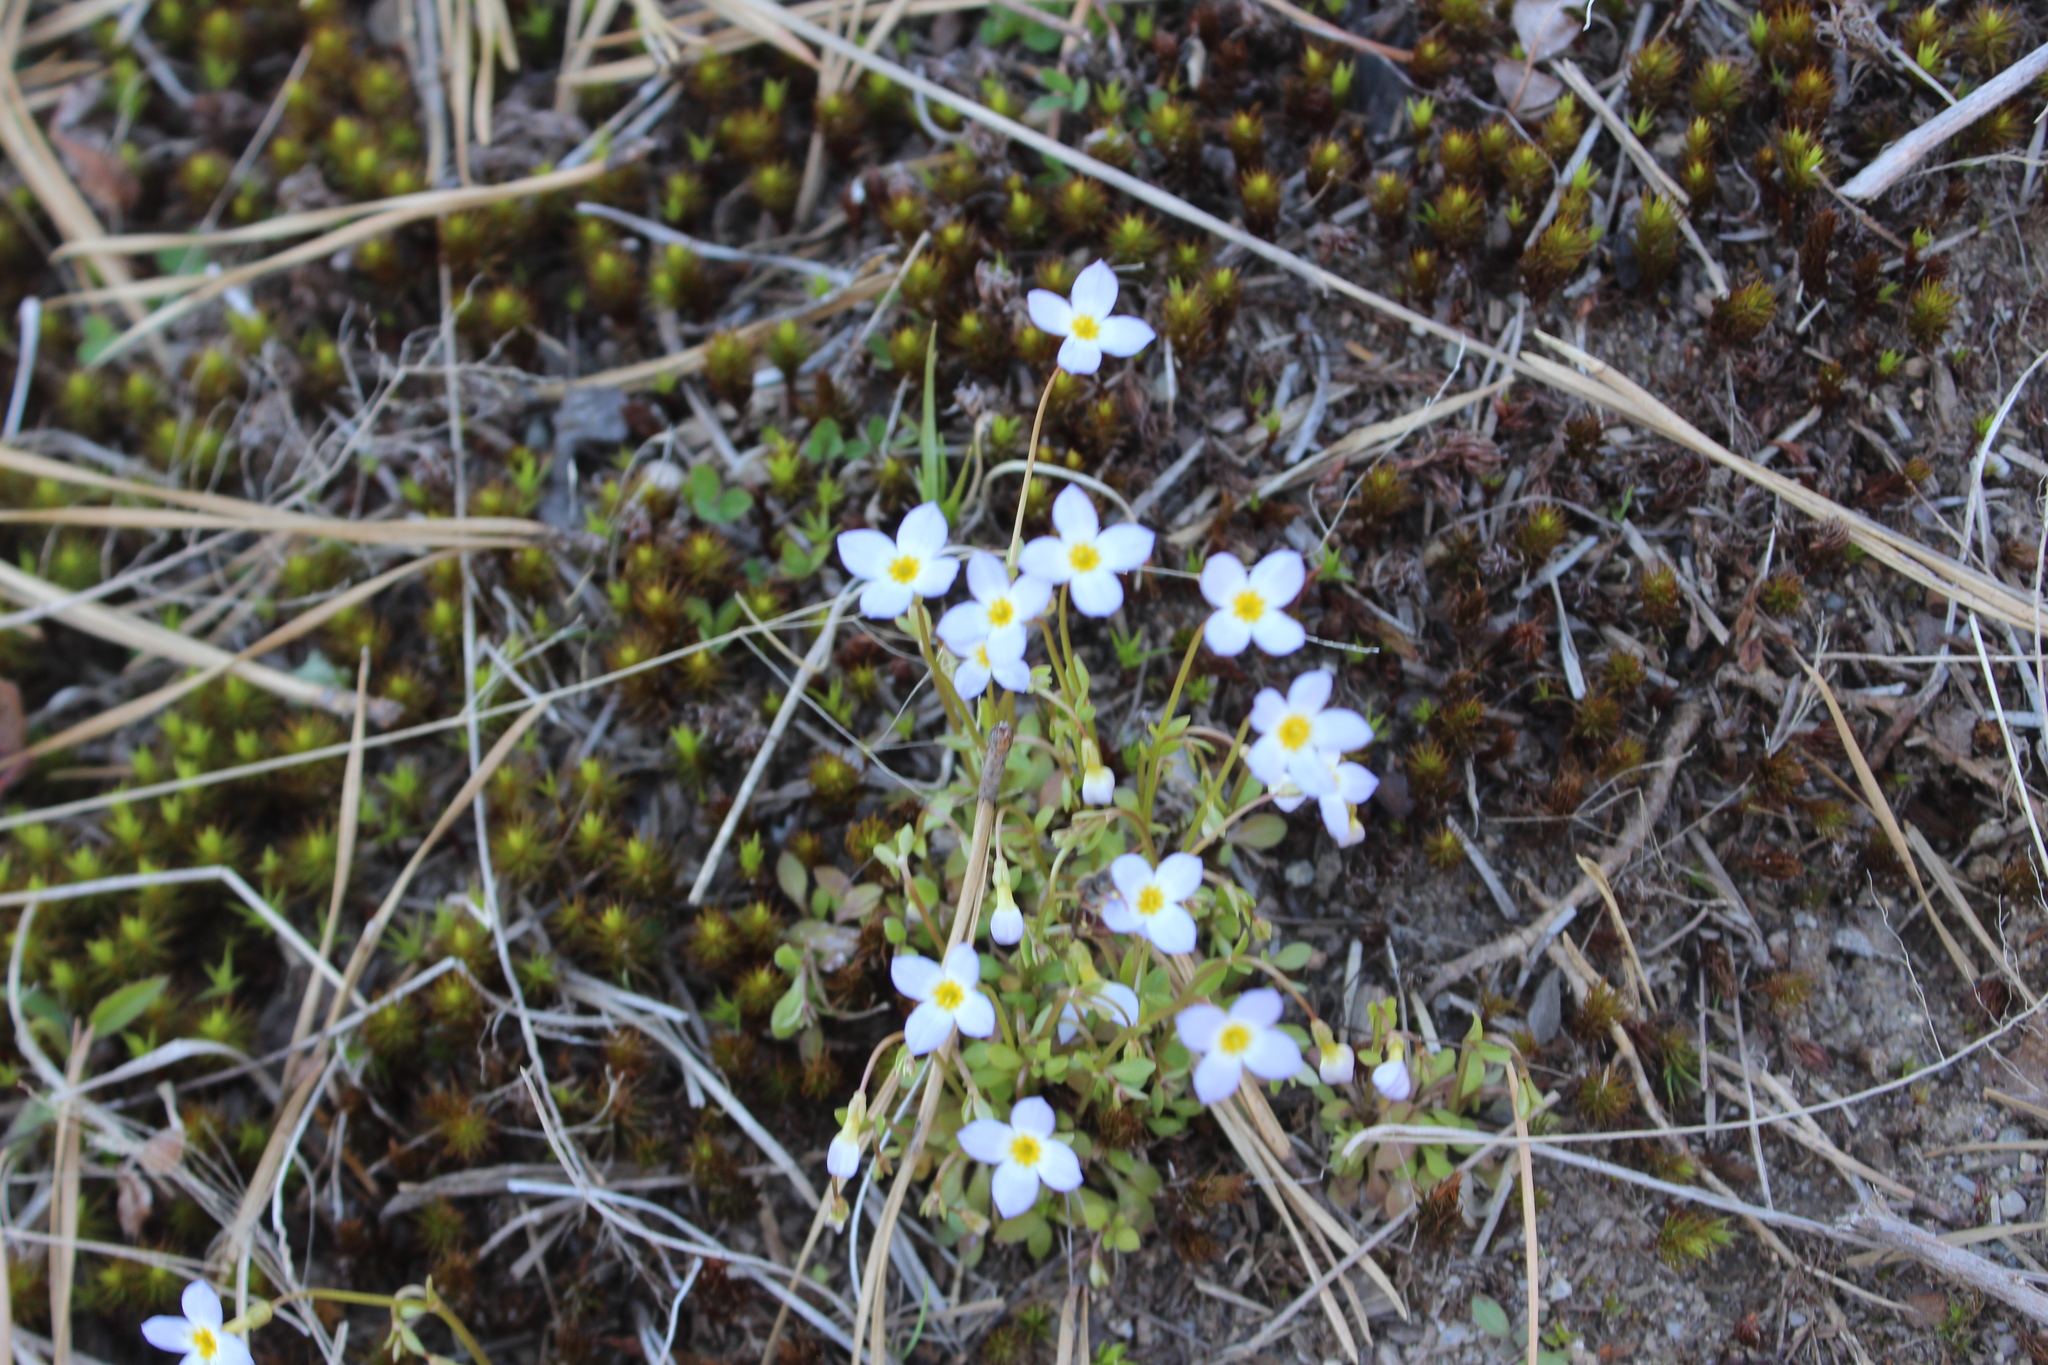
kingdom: Plantae
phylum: Tracheophyta
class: Magnoliopsida
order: Gentianales
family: Rubiaceae
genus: Houstonia
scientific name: Houstonia caerulea
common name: Bluets
